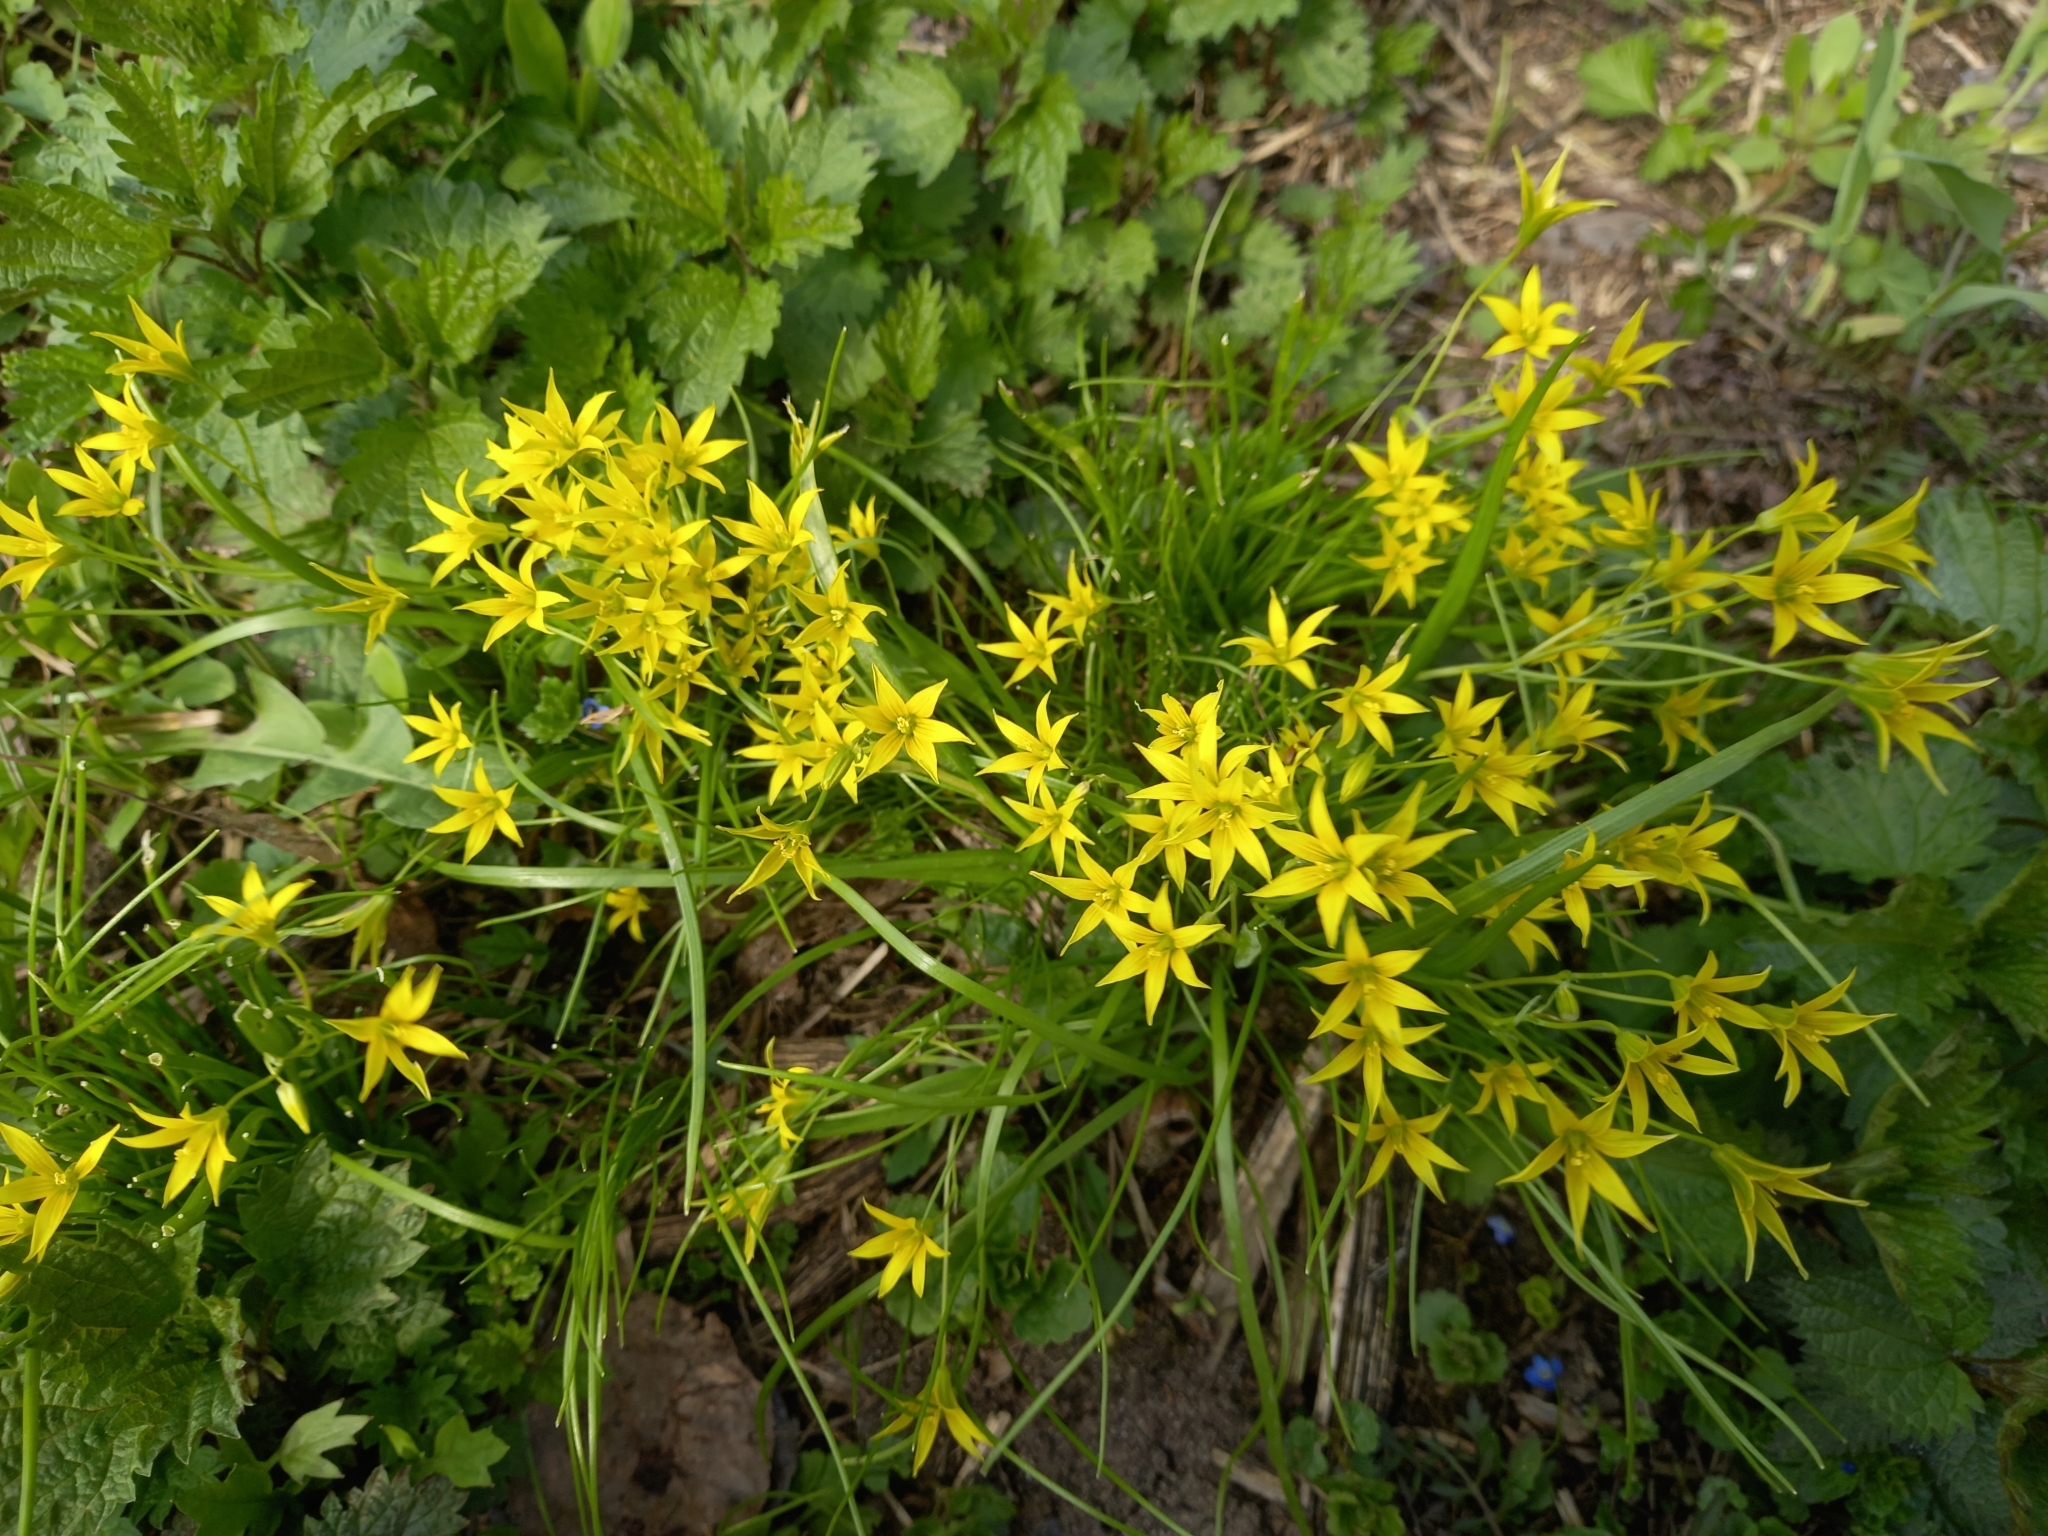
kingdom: Plantae
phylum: Tracheophyta
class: Liliopsida
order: Liliales
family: Liliaceae
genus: Gagea
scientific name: Gagea minima
